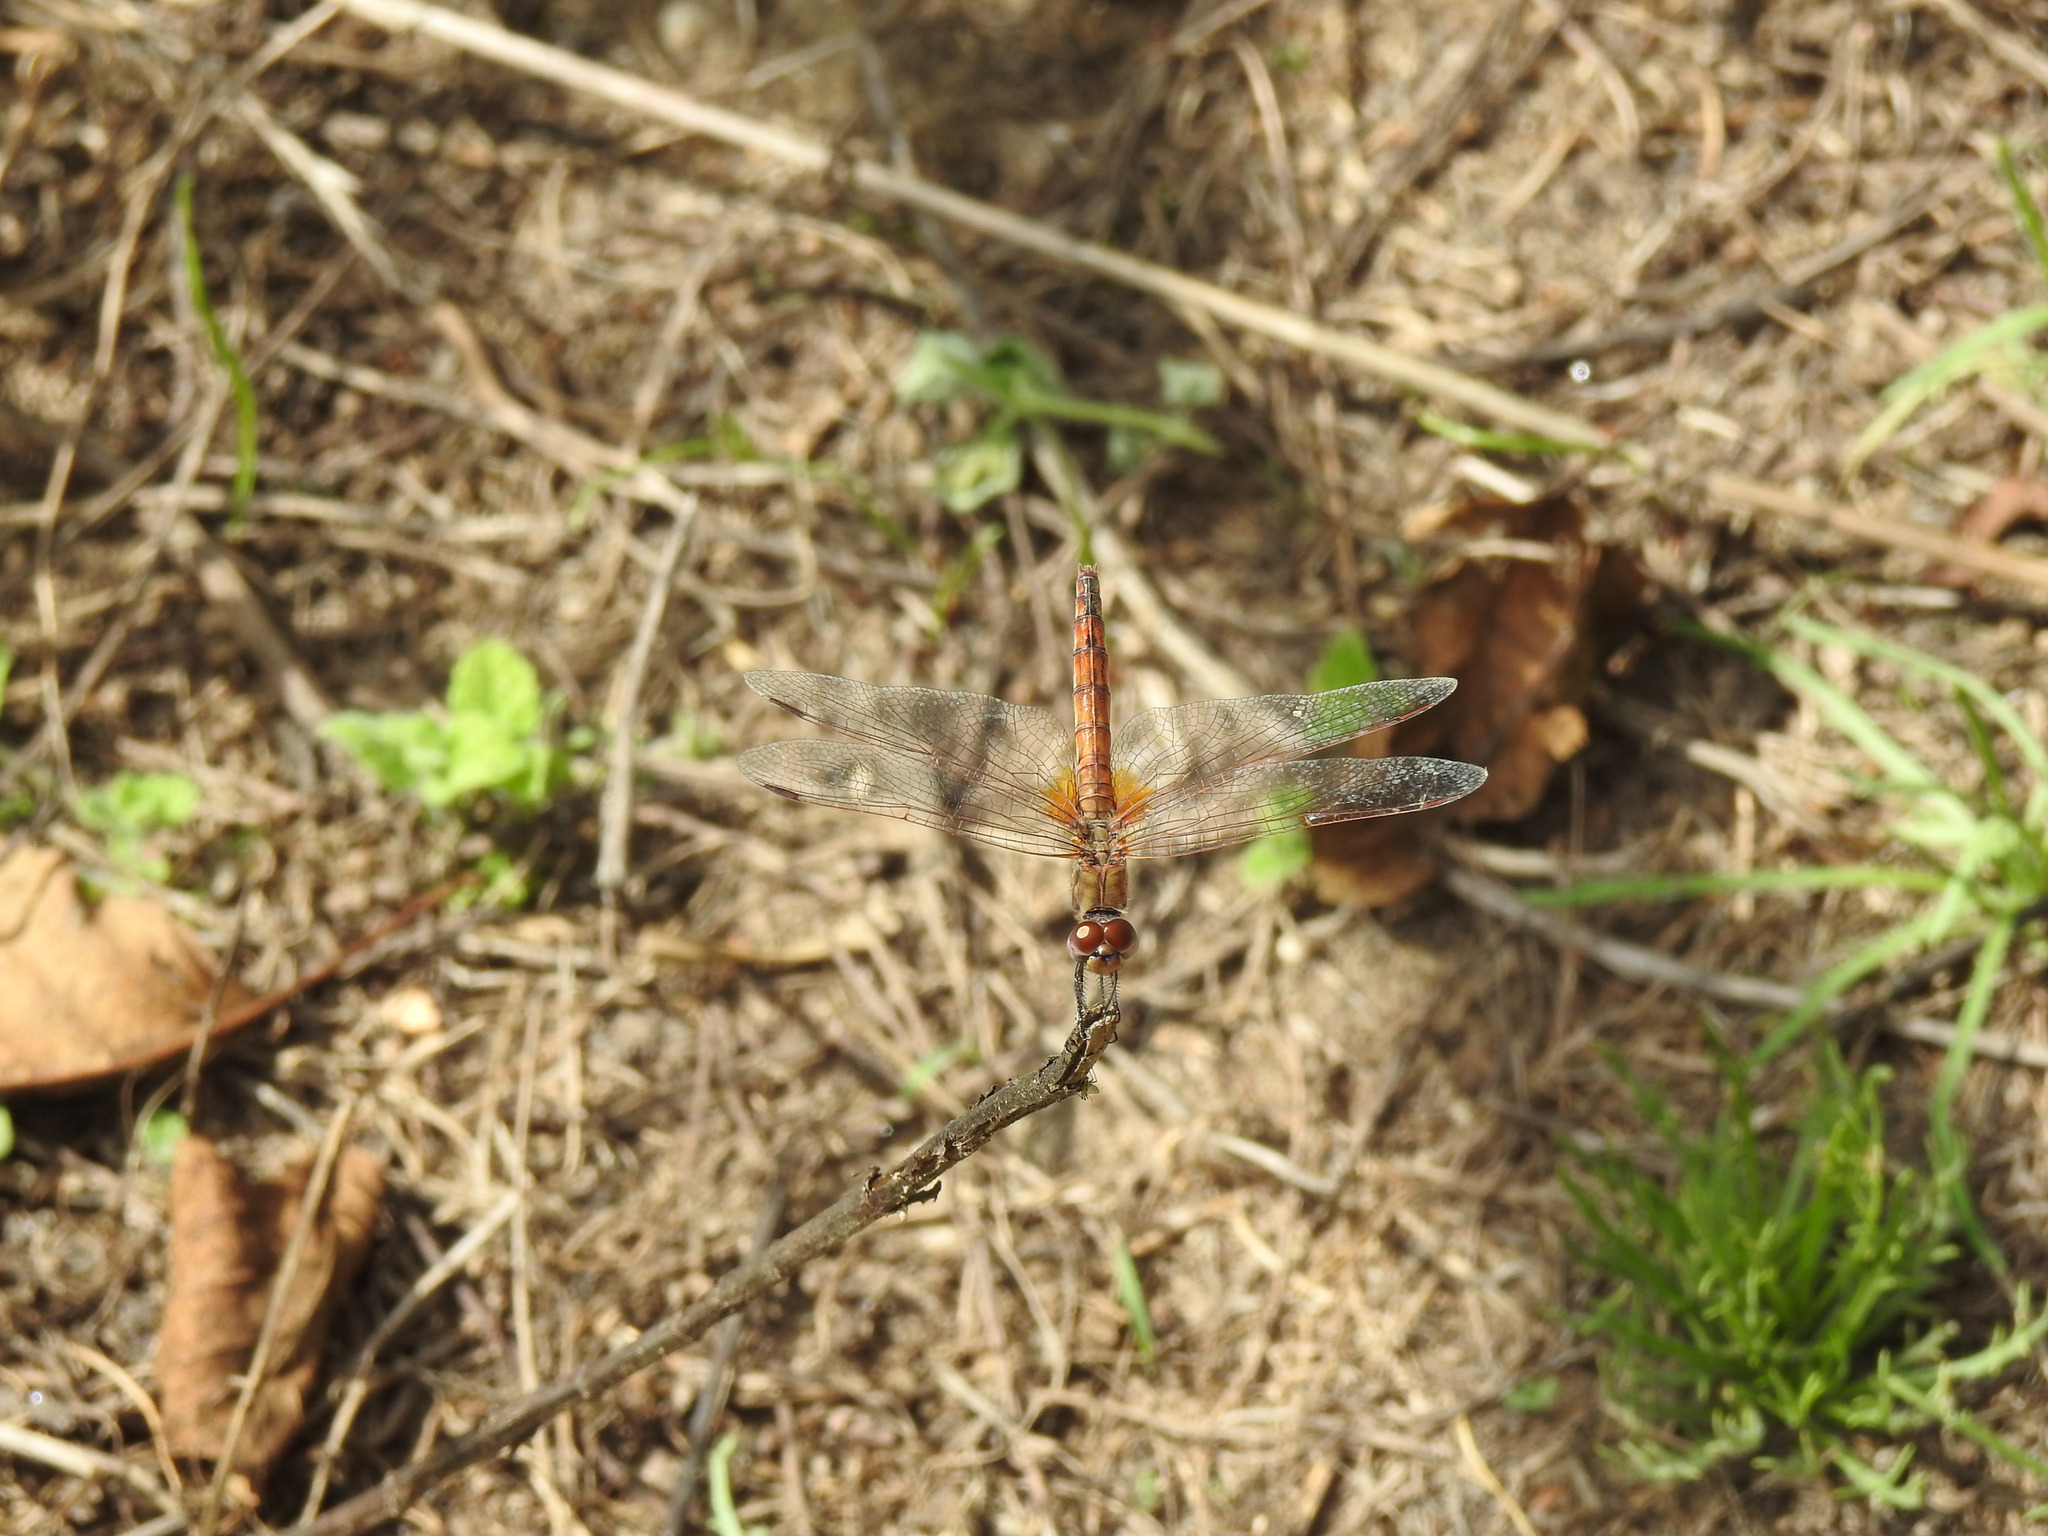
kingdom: Animalia
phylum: Arthropoda
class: Insecta
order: Odonata
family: Libellulidae
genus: Trithemis
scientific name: Trithemis annulata
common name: Violet dropwing
